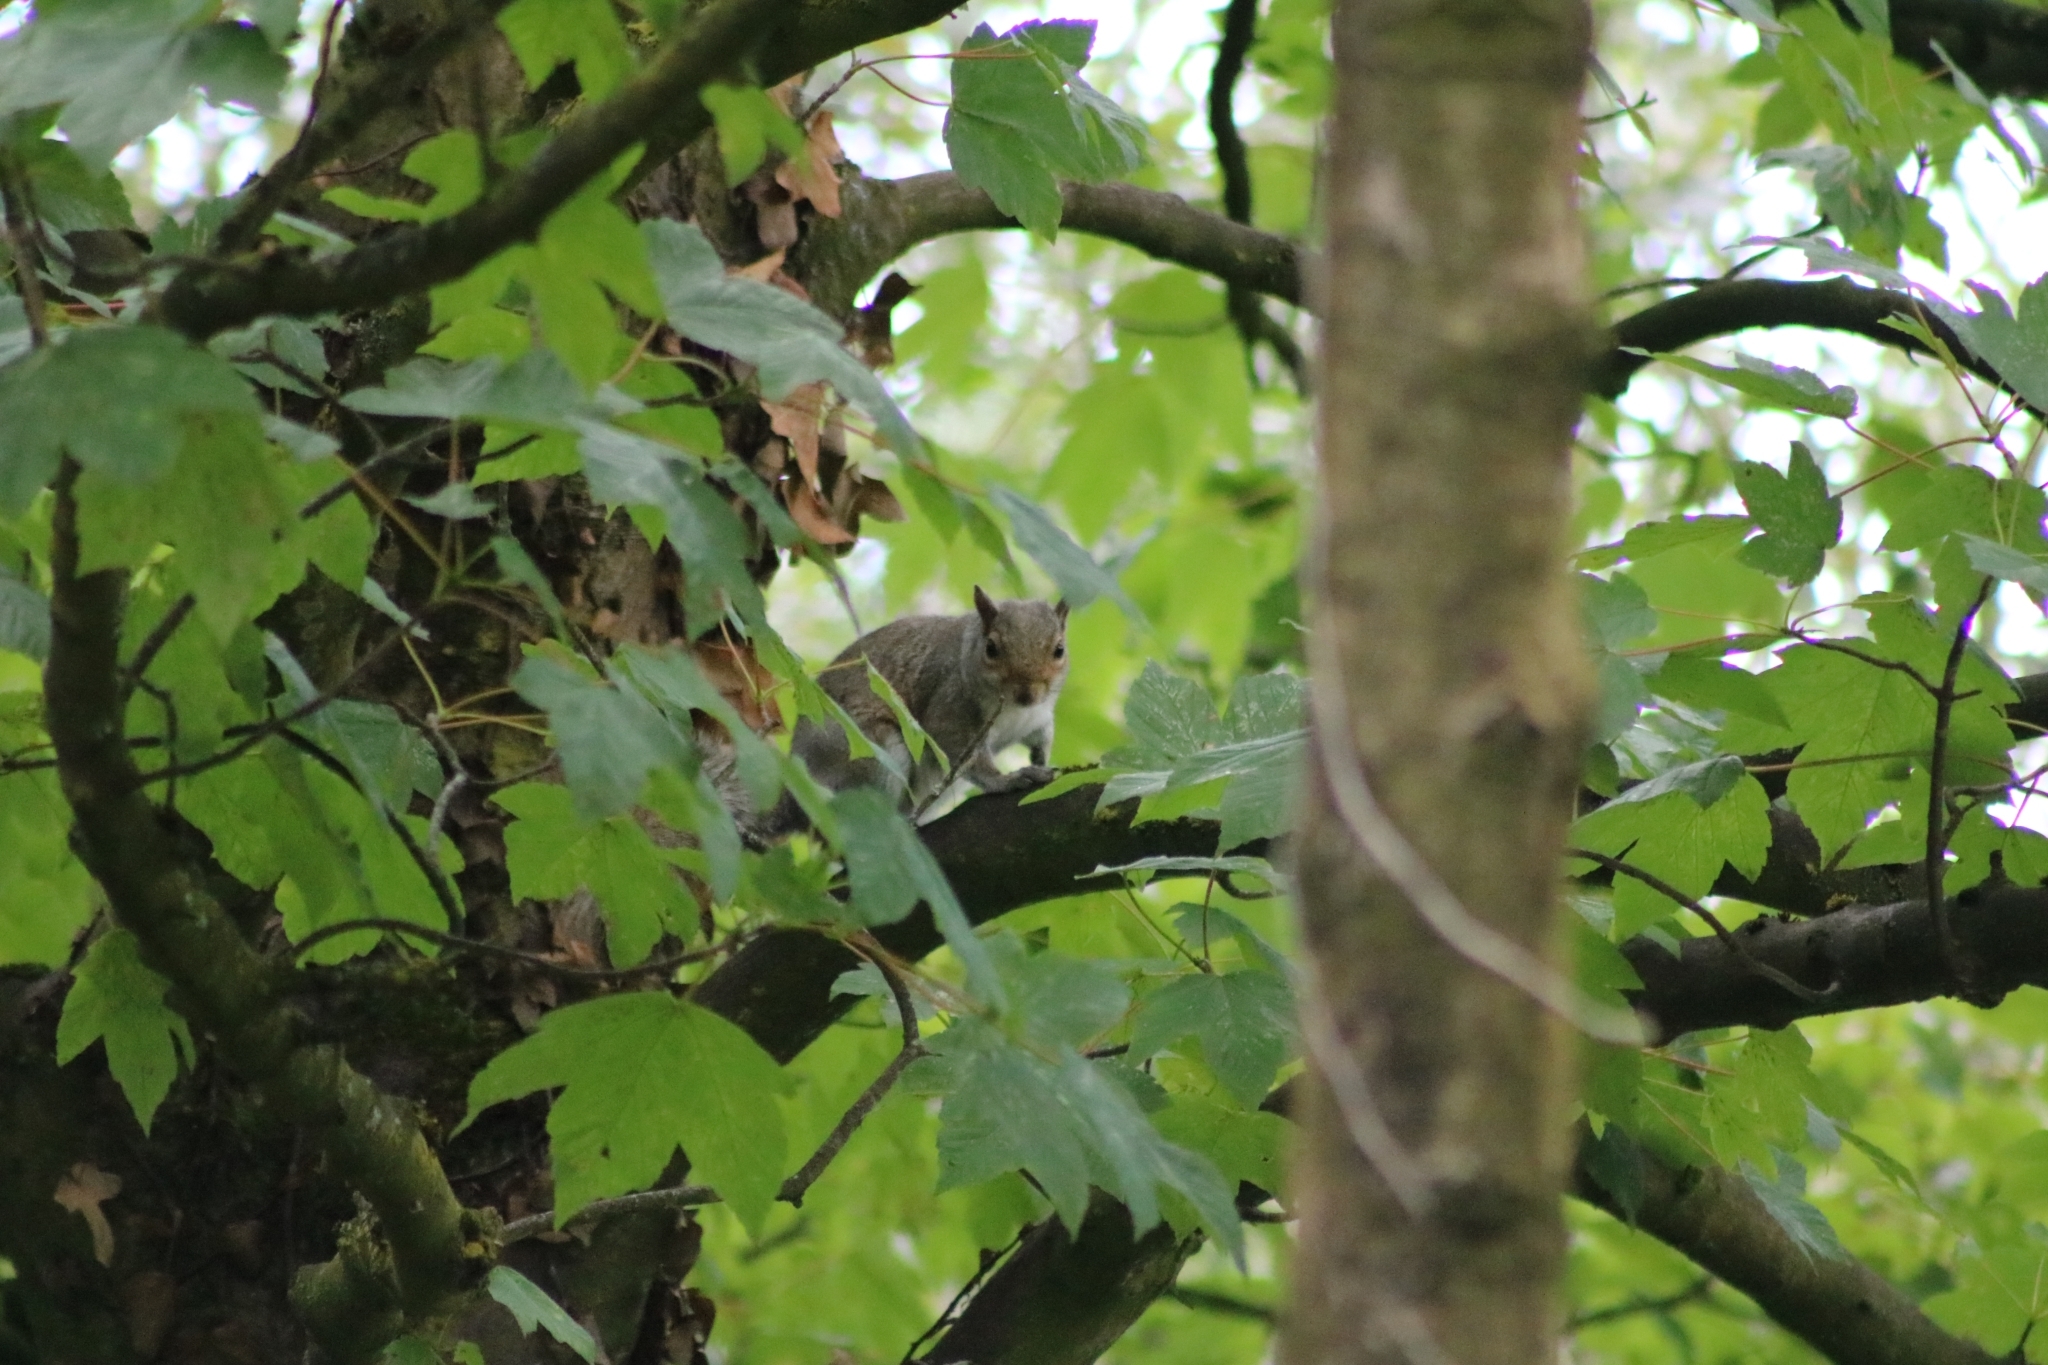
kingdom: Animalia
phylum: Chordata
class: Mammalia
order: Rodentia
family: Sciuridae
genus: Sciurus
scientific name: Sciurus carolinensis
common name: Eastern gray squirrel
